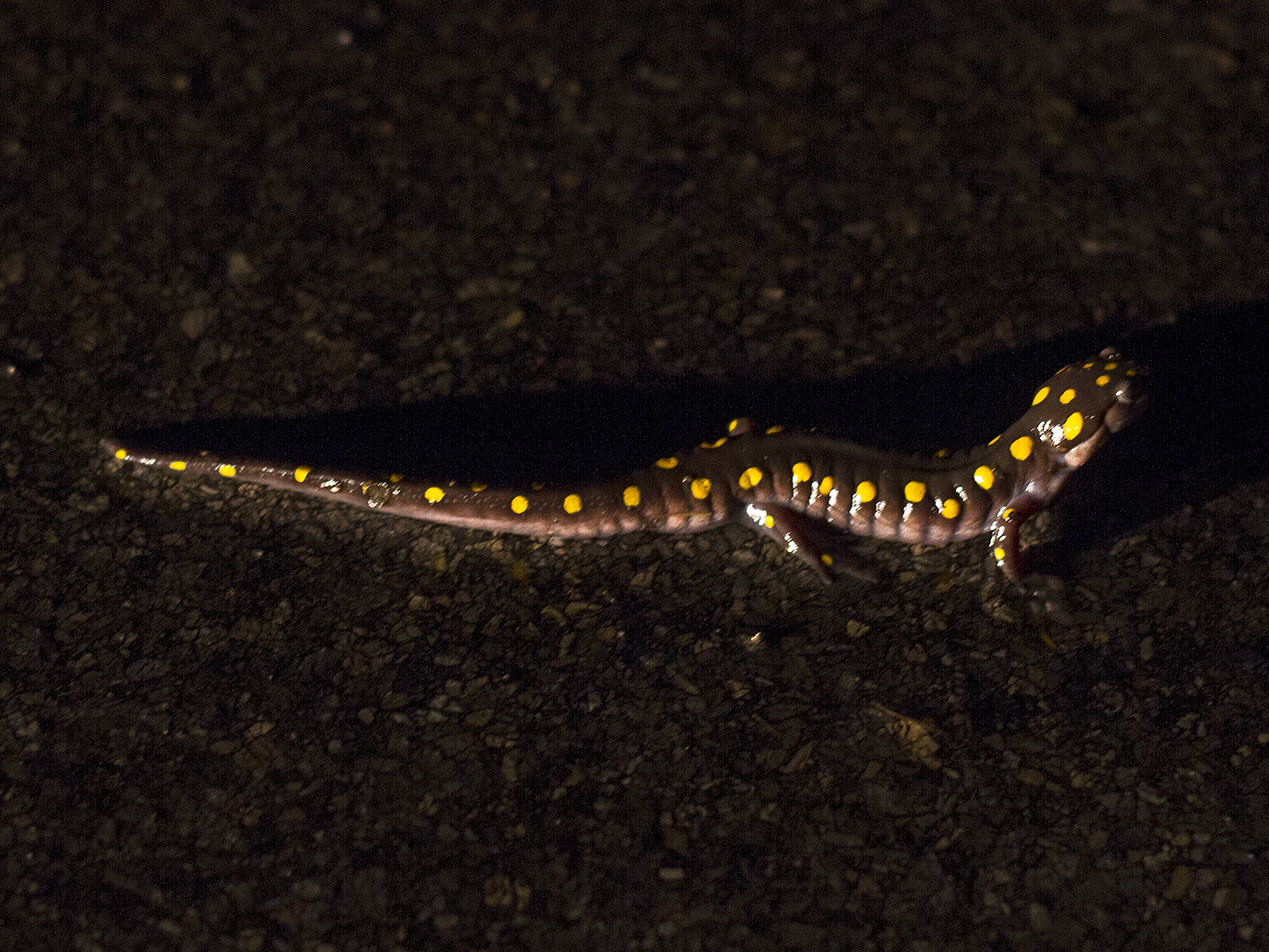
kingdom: Animalia
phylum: Chordata
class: Amphibia
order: Caudata
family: Ambystomatidae
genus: Ambystoma
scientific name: Ambystoma maculatum
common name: Spotted salamander
